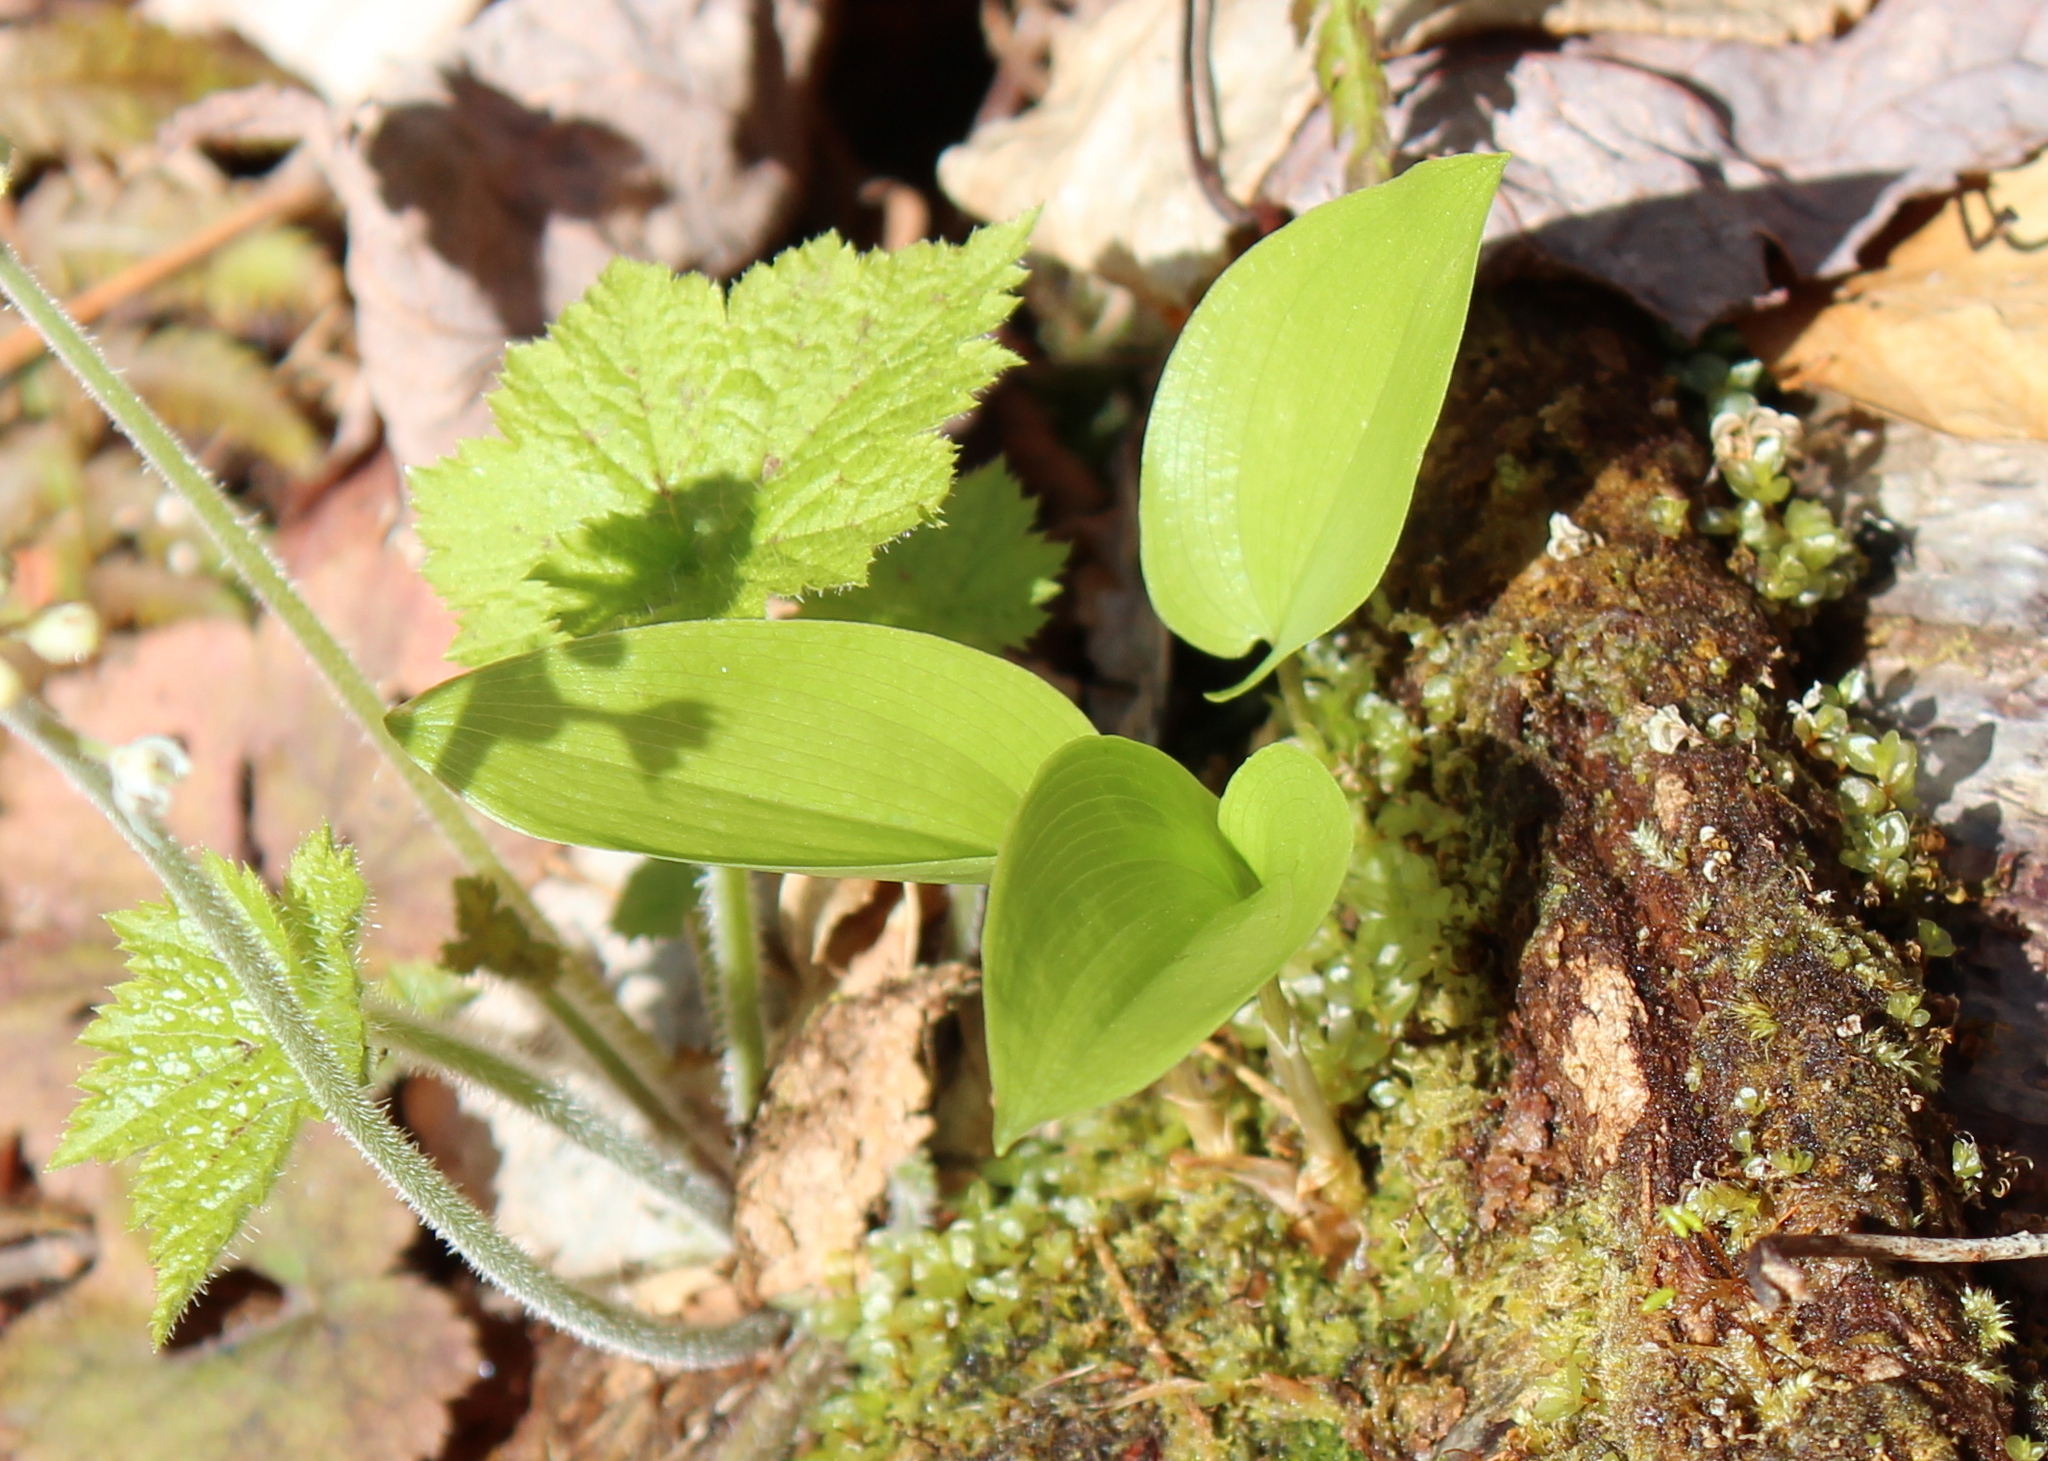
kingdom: Plantae
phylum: Tracheophyta
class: Liliopsida
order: Asparagales
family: Asparagaceae
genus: Maianthemum
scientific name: Maianthemum canadense
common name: False lily-of-the-valley
